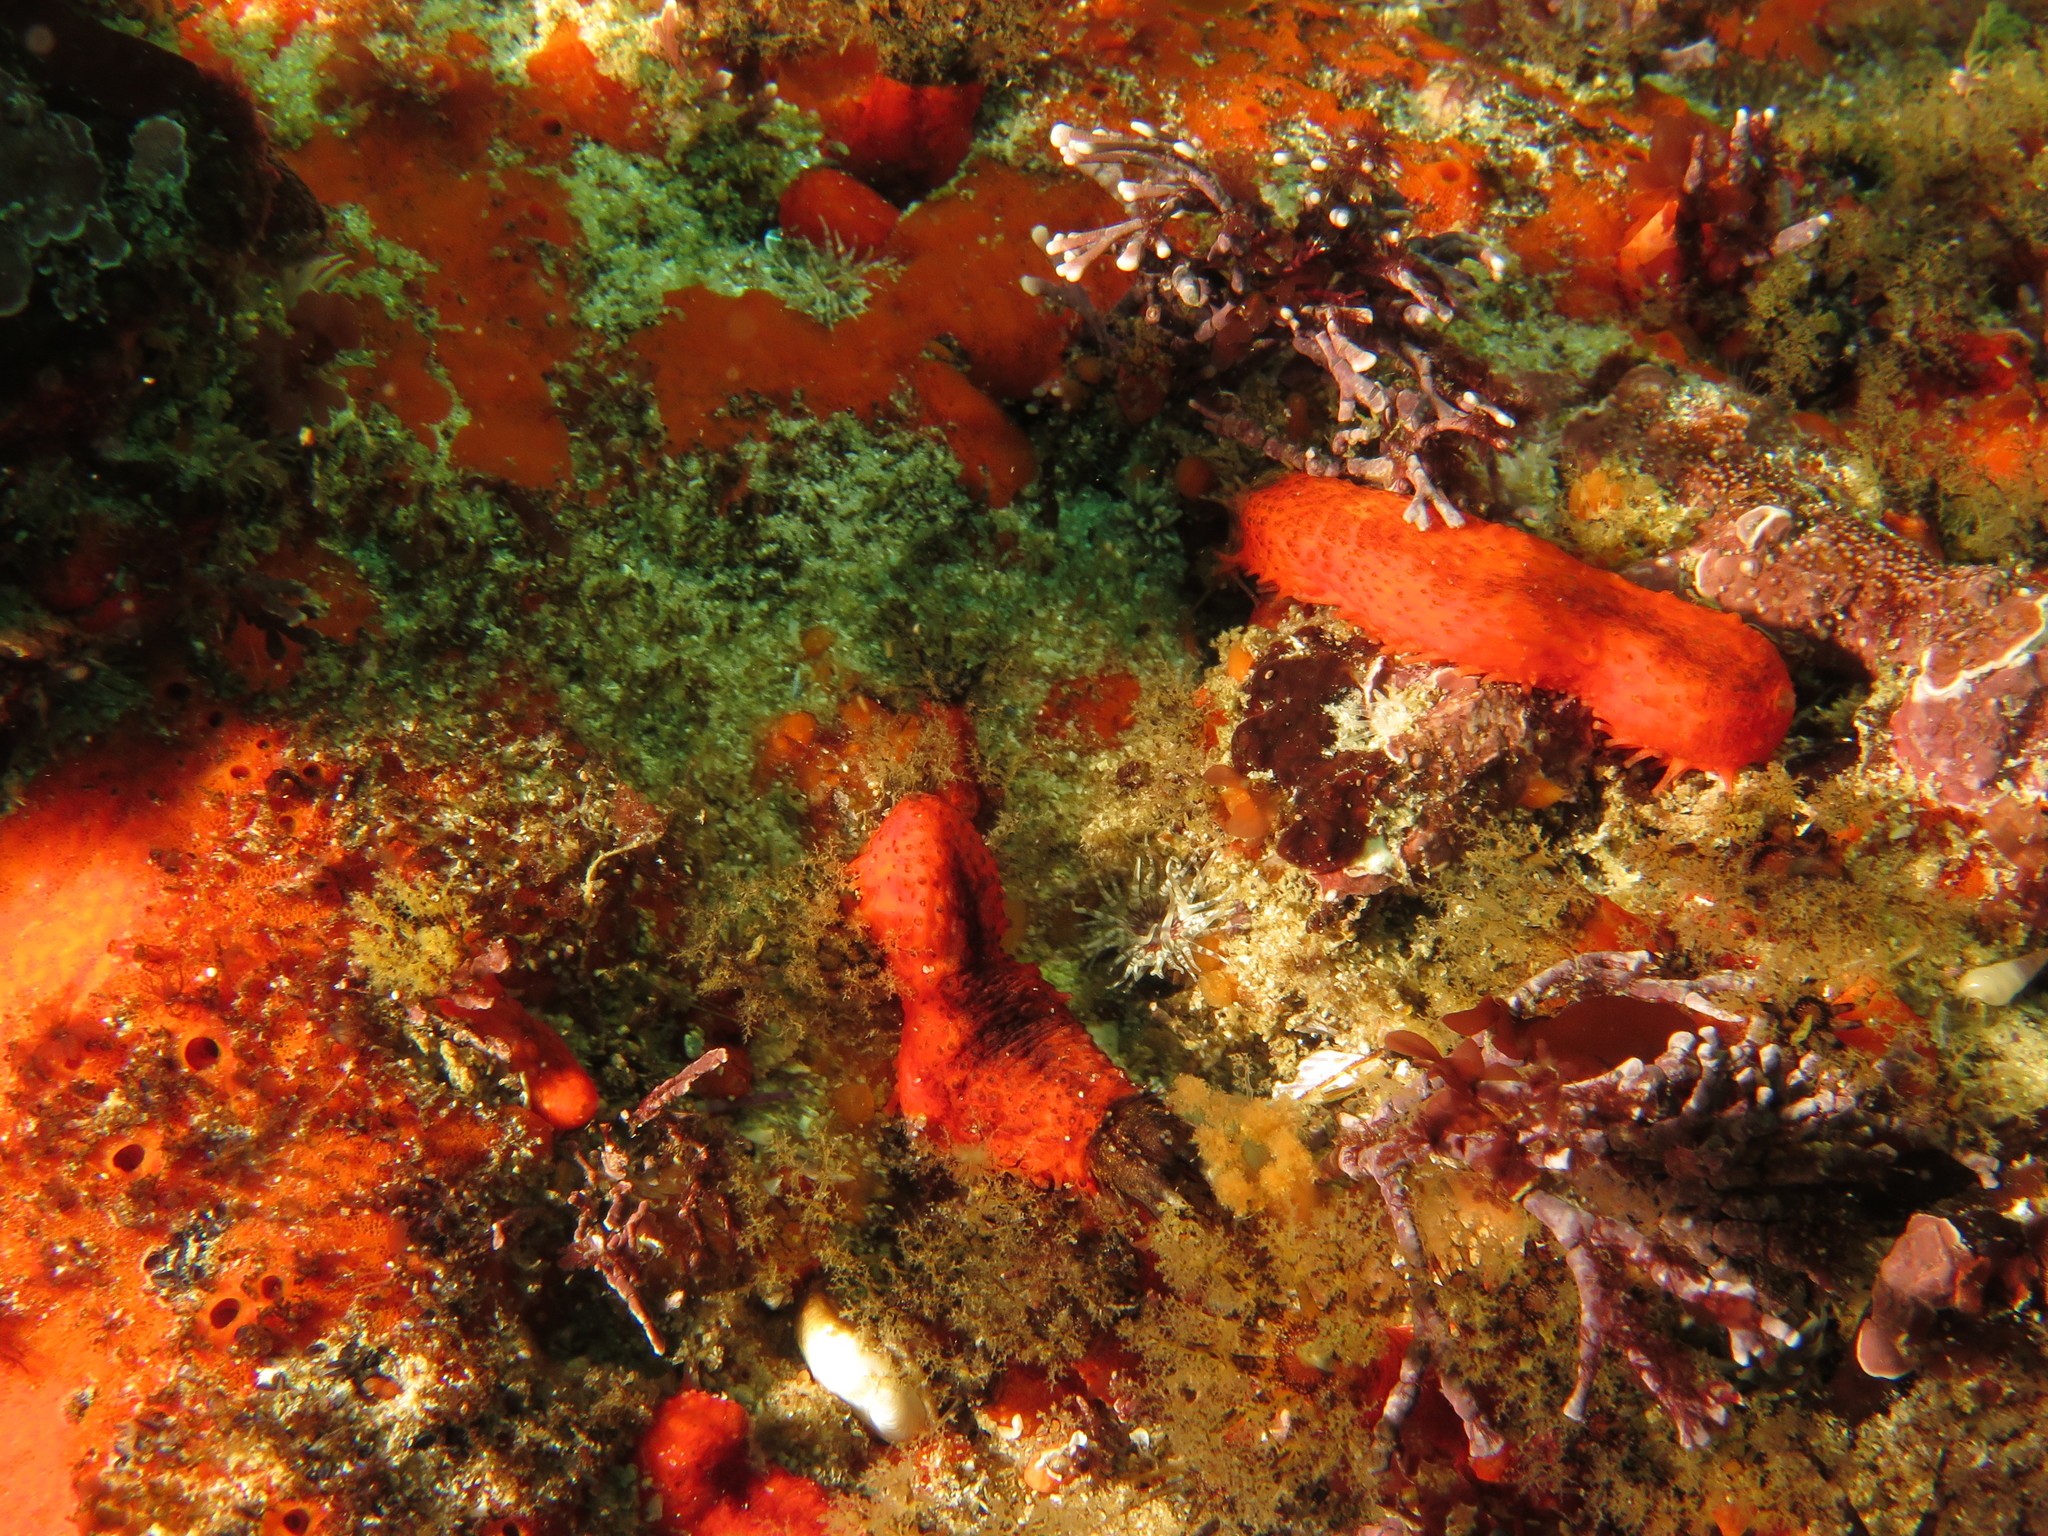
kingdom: Animalia
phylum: Echinodermata
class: Holothuroidea
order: Dendrochirotida
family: Cucumariidae
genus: Hemiocnus
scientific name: Hemiocnus insolens
